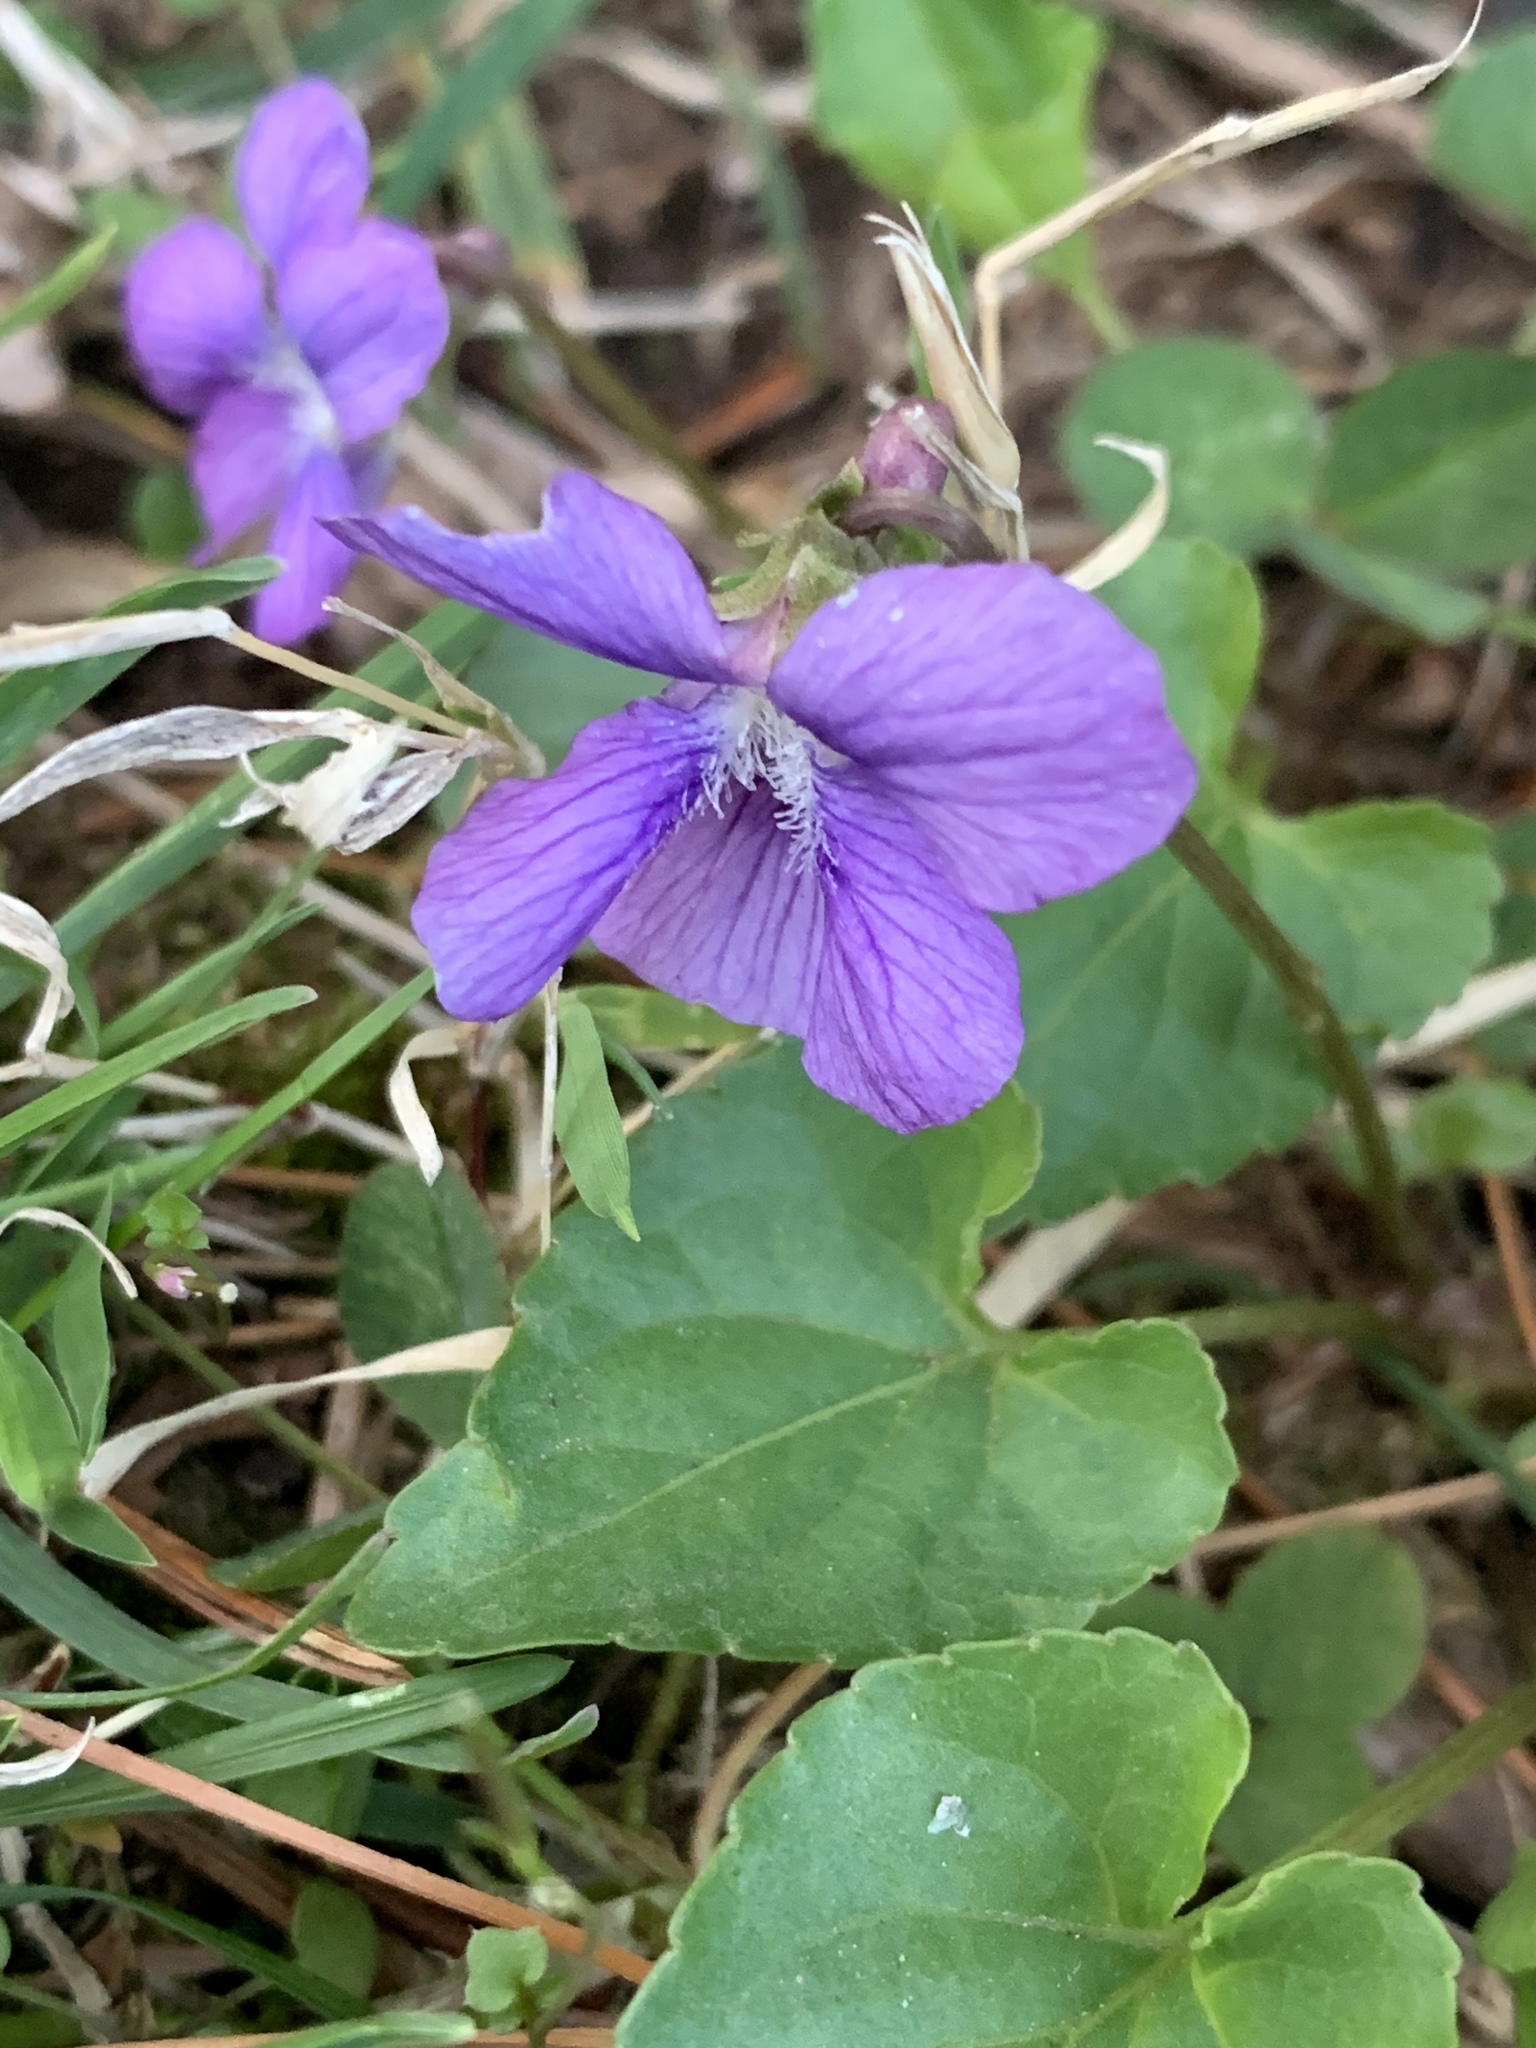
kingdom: Plantae
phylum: Tracheophyta
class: Magnoliopsida
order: Malpighiales
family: Violaceae
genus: Viola
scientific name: Viola sororia
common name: Dooryard violet
